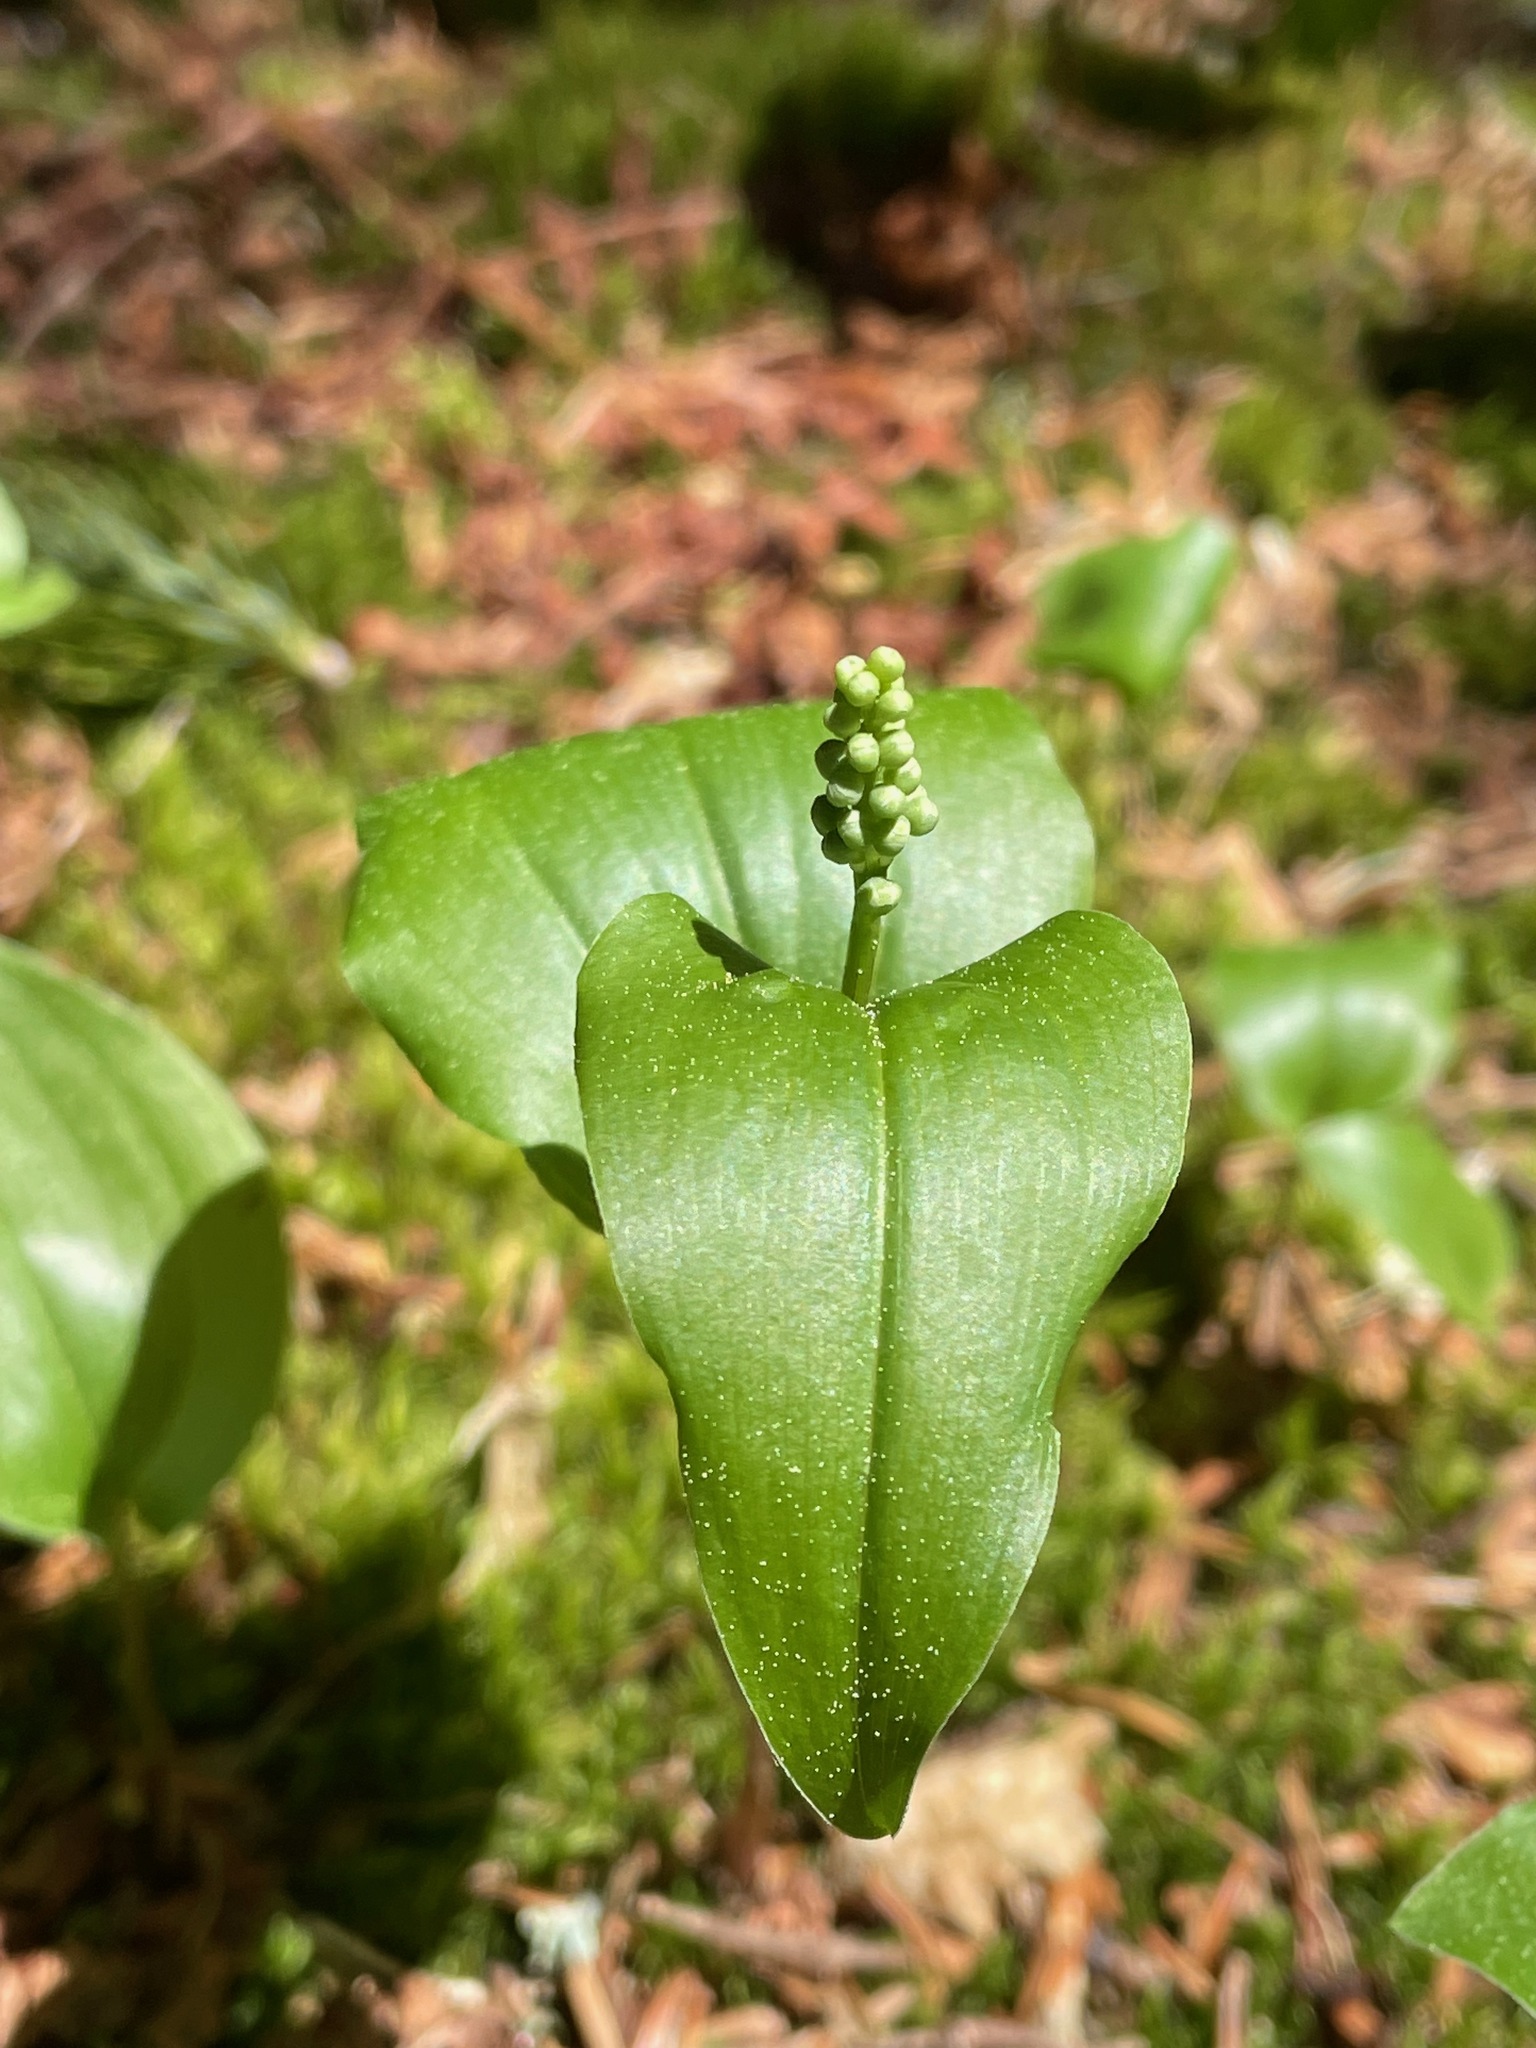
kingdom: Plantae
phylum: Tracheophyta
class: Liliopsida
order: Asparagales
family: Asparagaceae
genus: Maianthemum
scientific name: Maianthemum canadense
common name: False lily-of-the-valley
